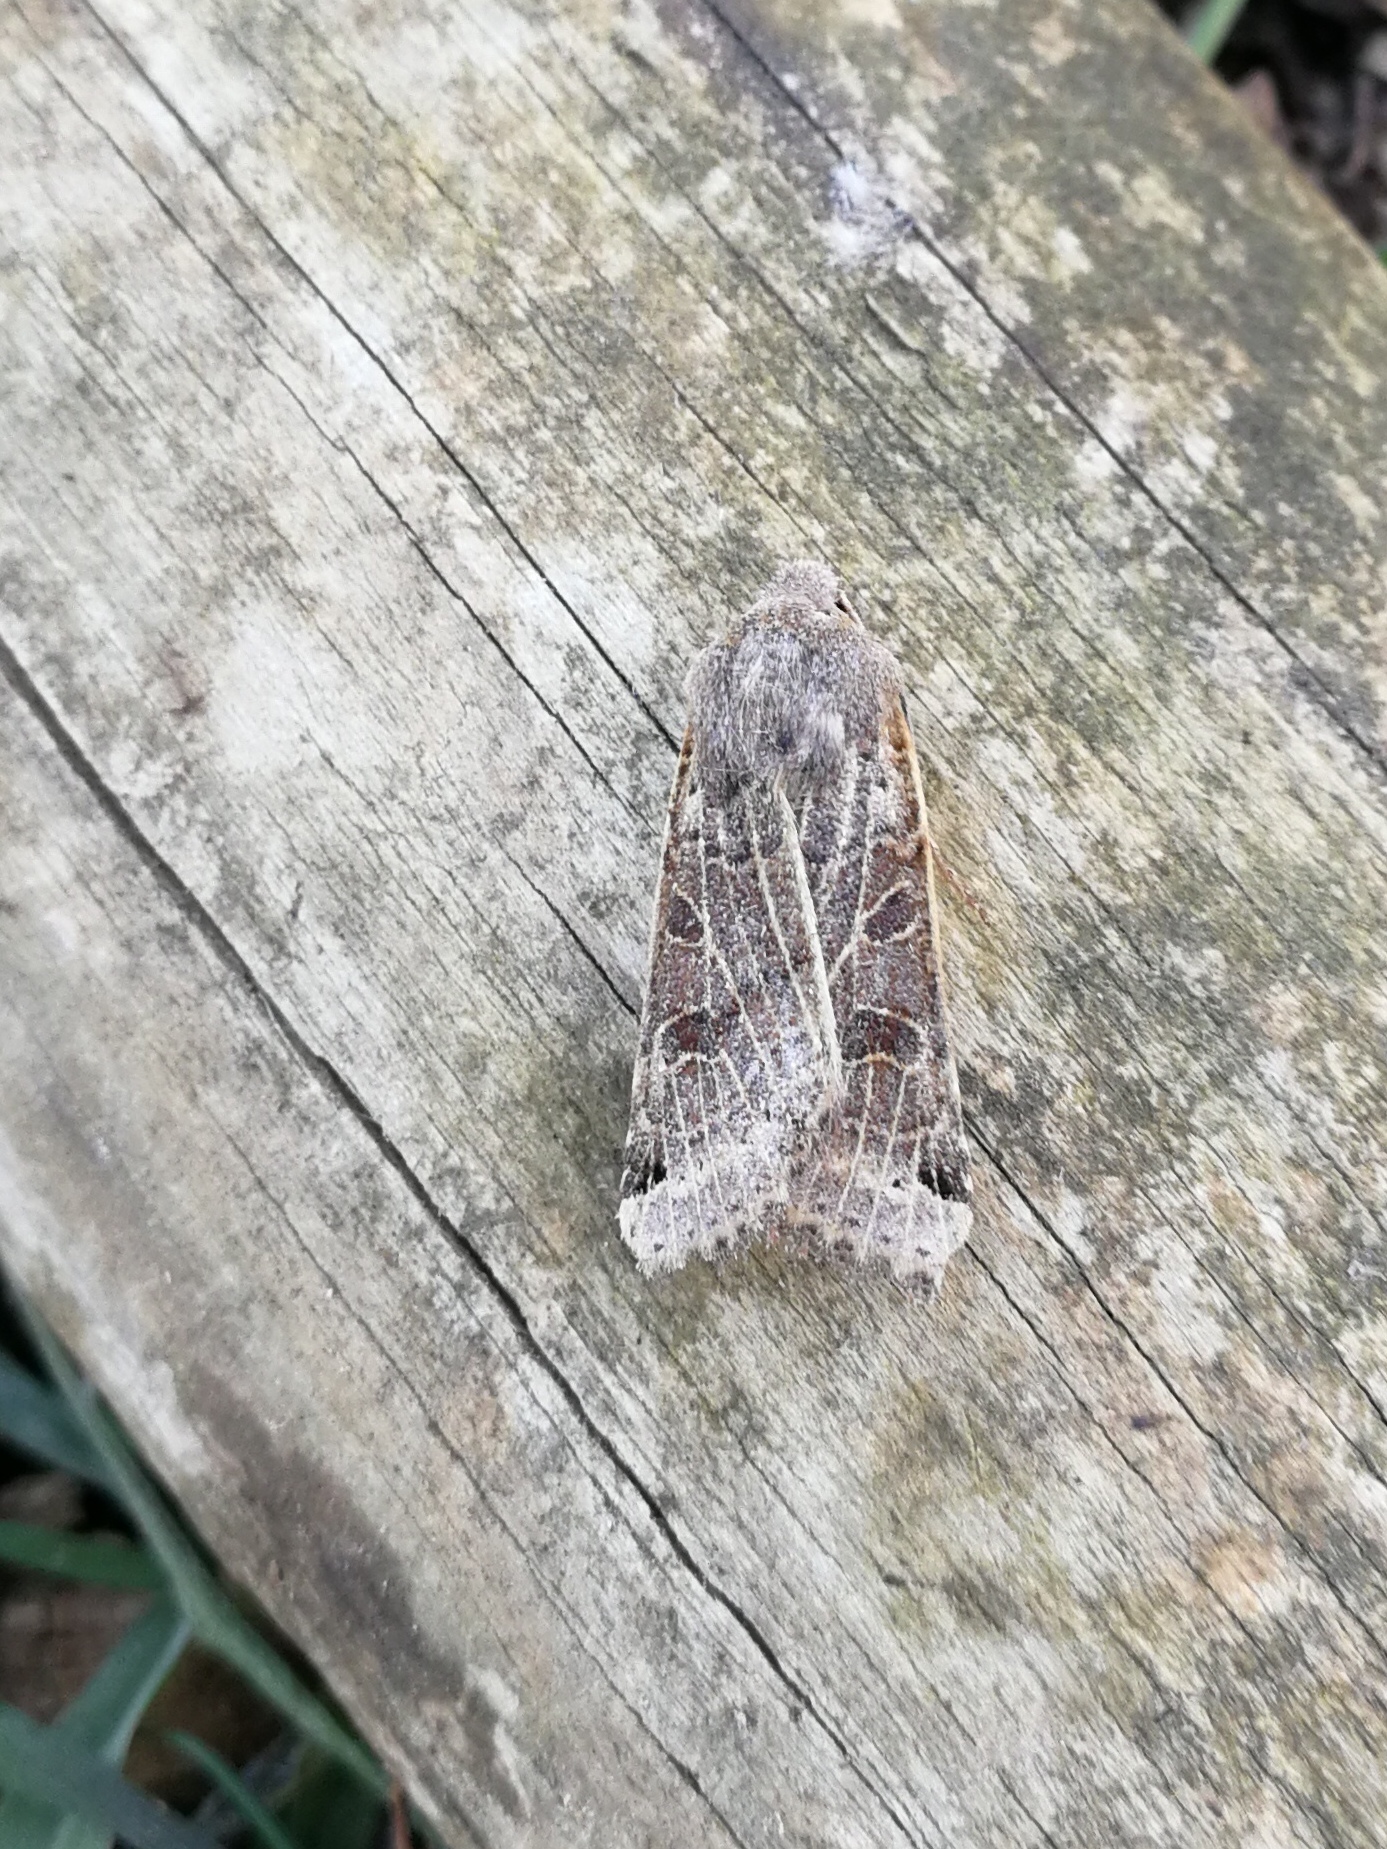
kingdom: Animalia
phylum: Arthropoda
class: Insecta
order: Lepidoptera
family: Noctuidae
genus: Agrochola
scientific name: Agrochola lunosa
